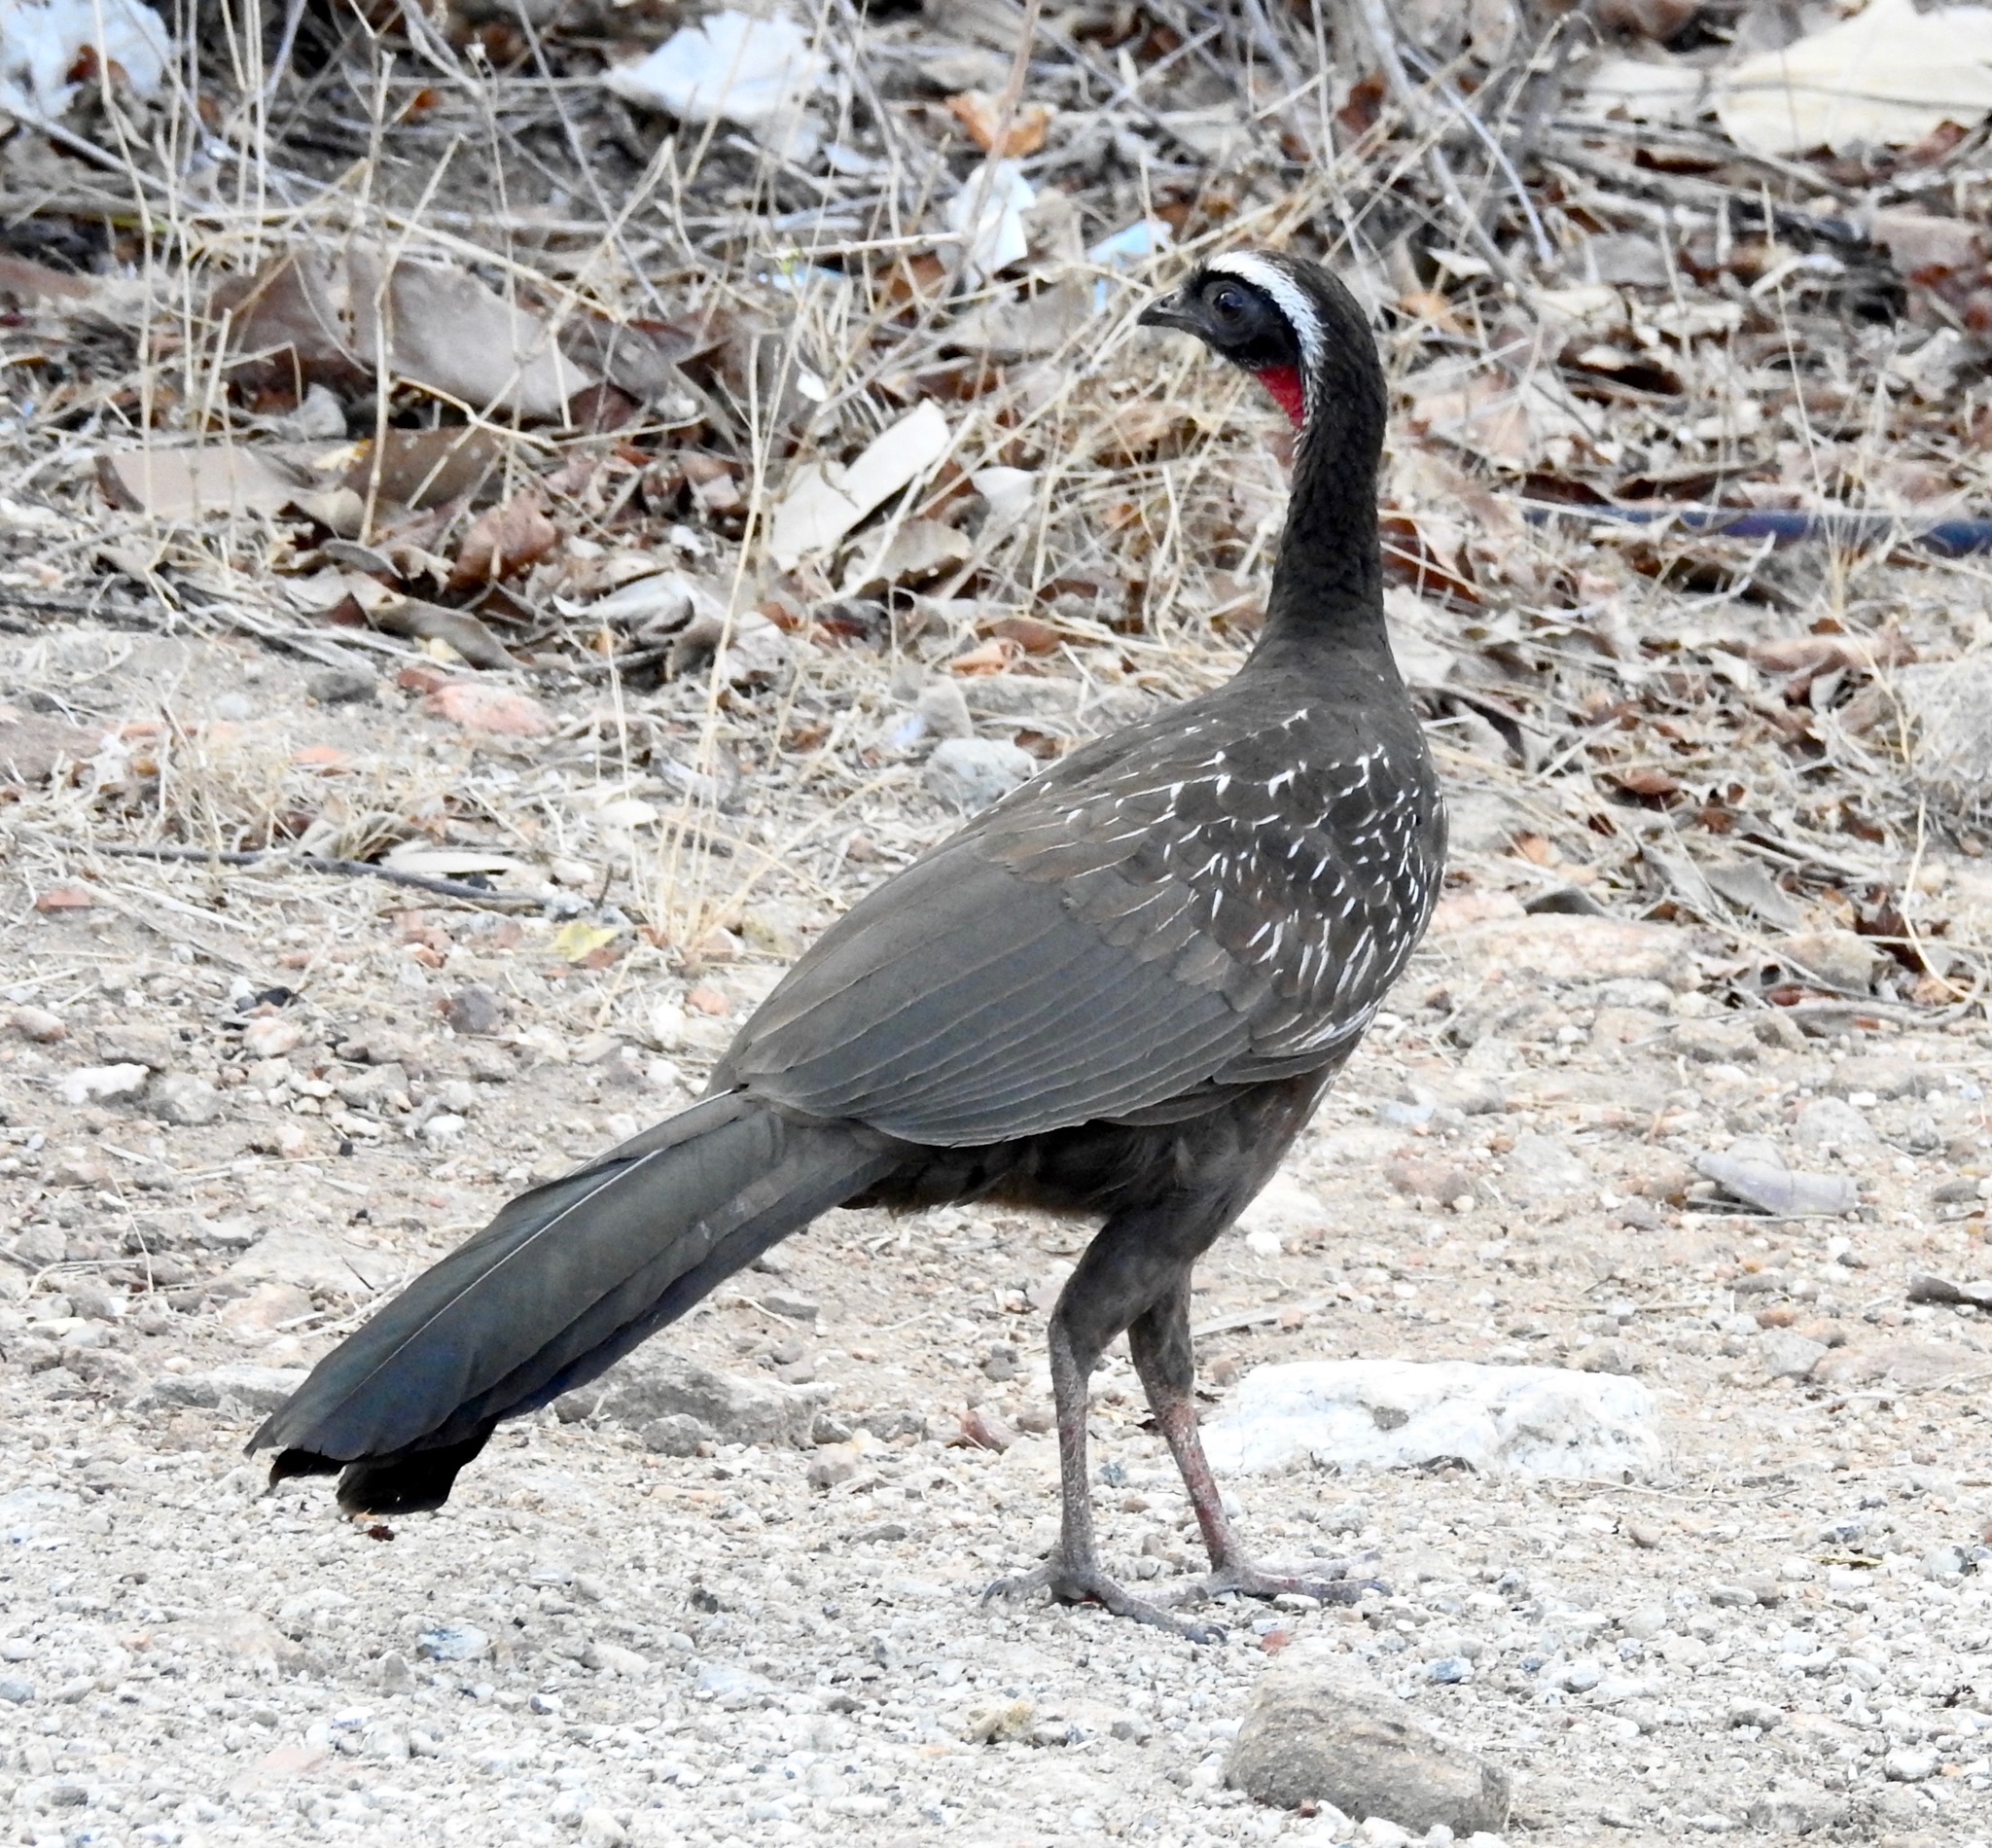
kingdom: Animalia
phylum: Chordata
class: Aves
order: Galliformes
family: Cracidae
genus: Penelope
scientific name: Penelope jacucaca
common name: White-browed guan
